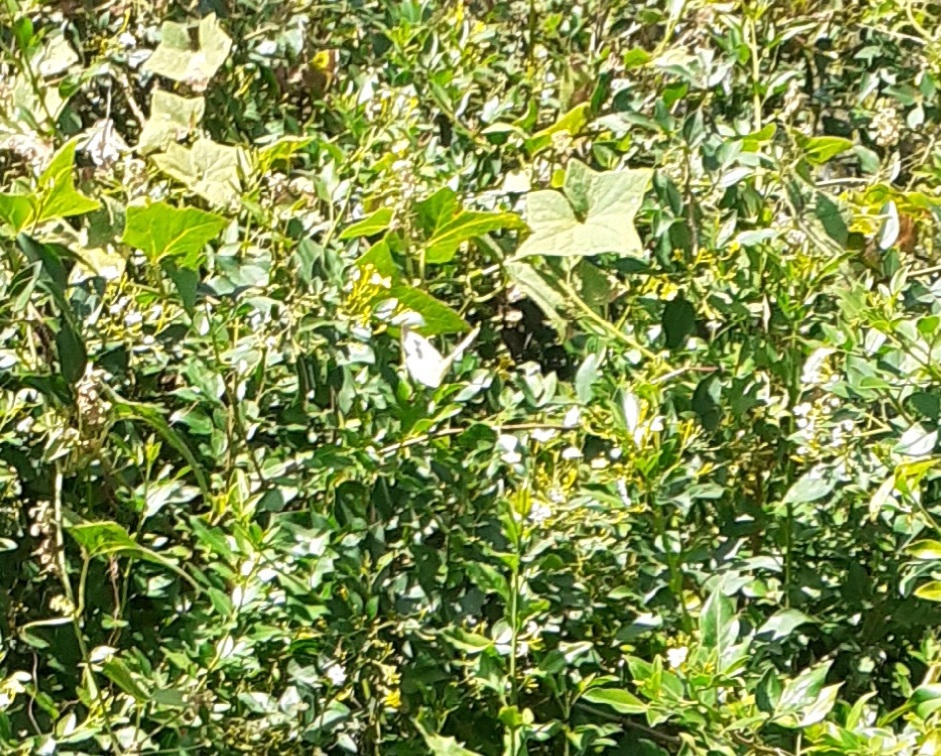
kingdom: Animalia
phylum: Arthropoda
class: Insecta
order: Lepidoptera
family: Pieridae
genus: Pieris
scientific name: Pieris cheiranthi
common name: Canary islands large white
